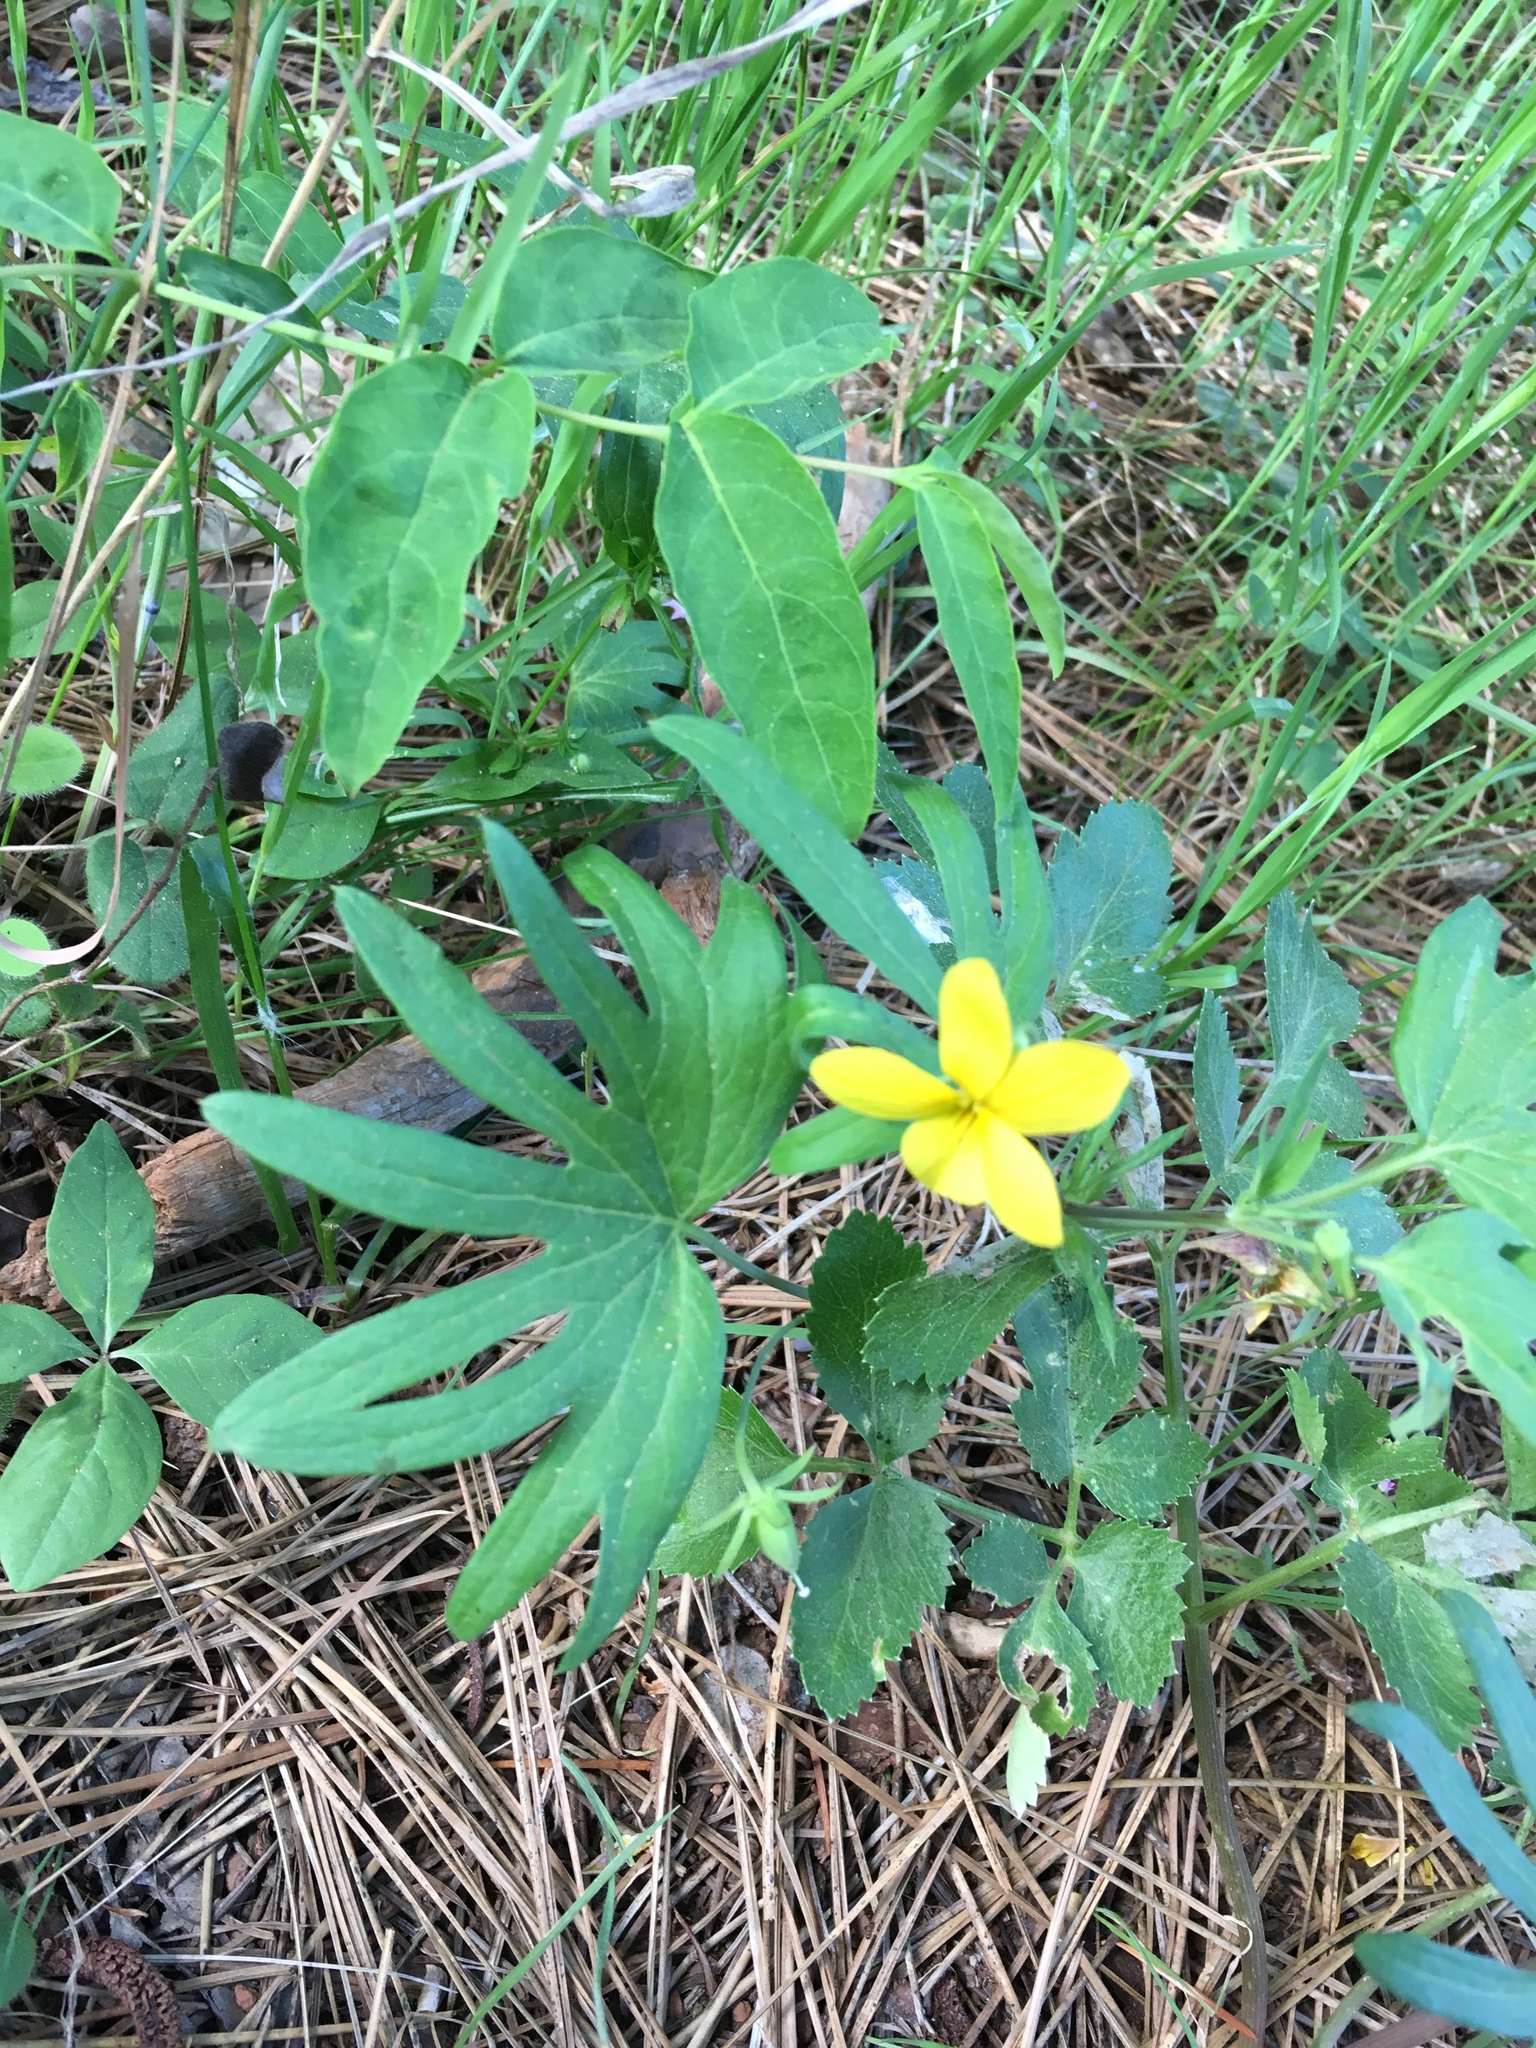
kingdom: Plantae
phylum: Tracheophyta
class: Magnoliopsida
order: Malpighiales
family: Violaceae
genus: Viola
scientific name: Viola lobata
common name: Pine violet
